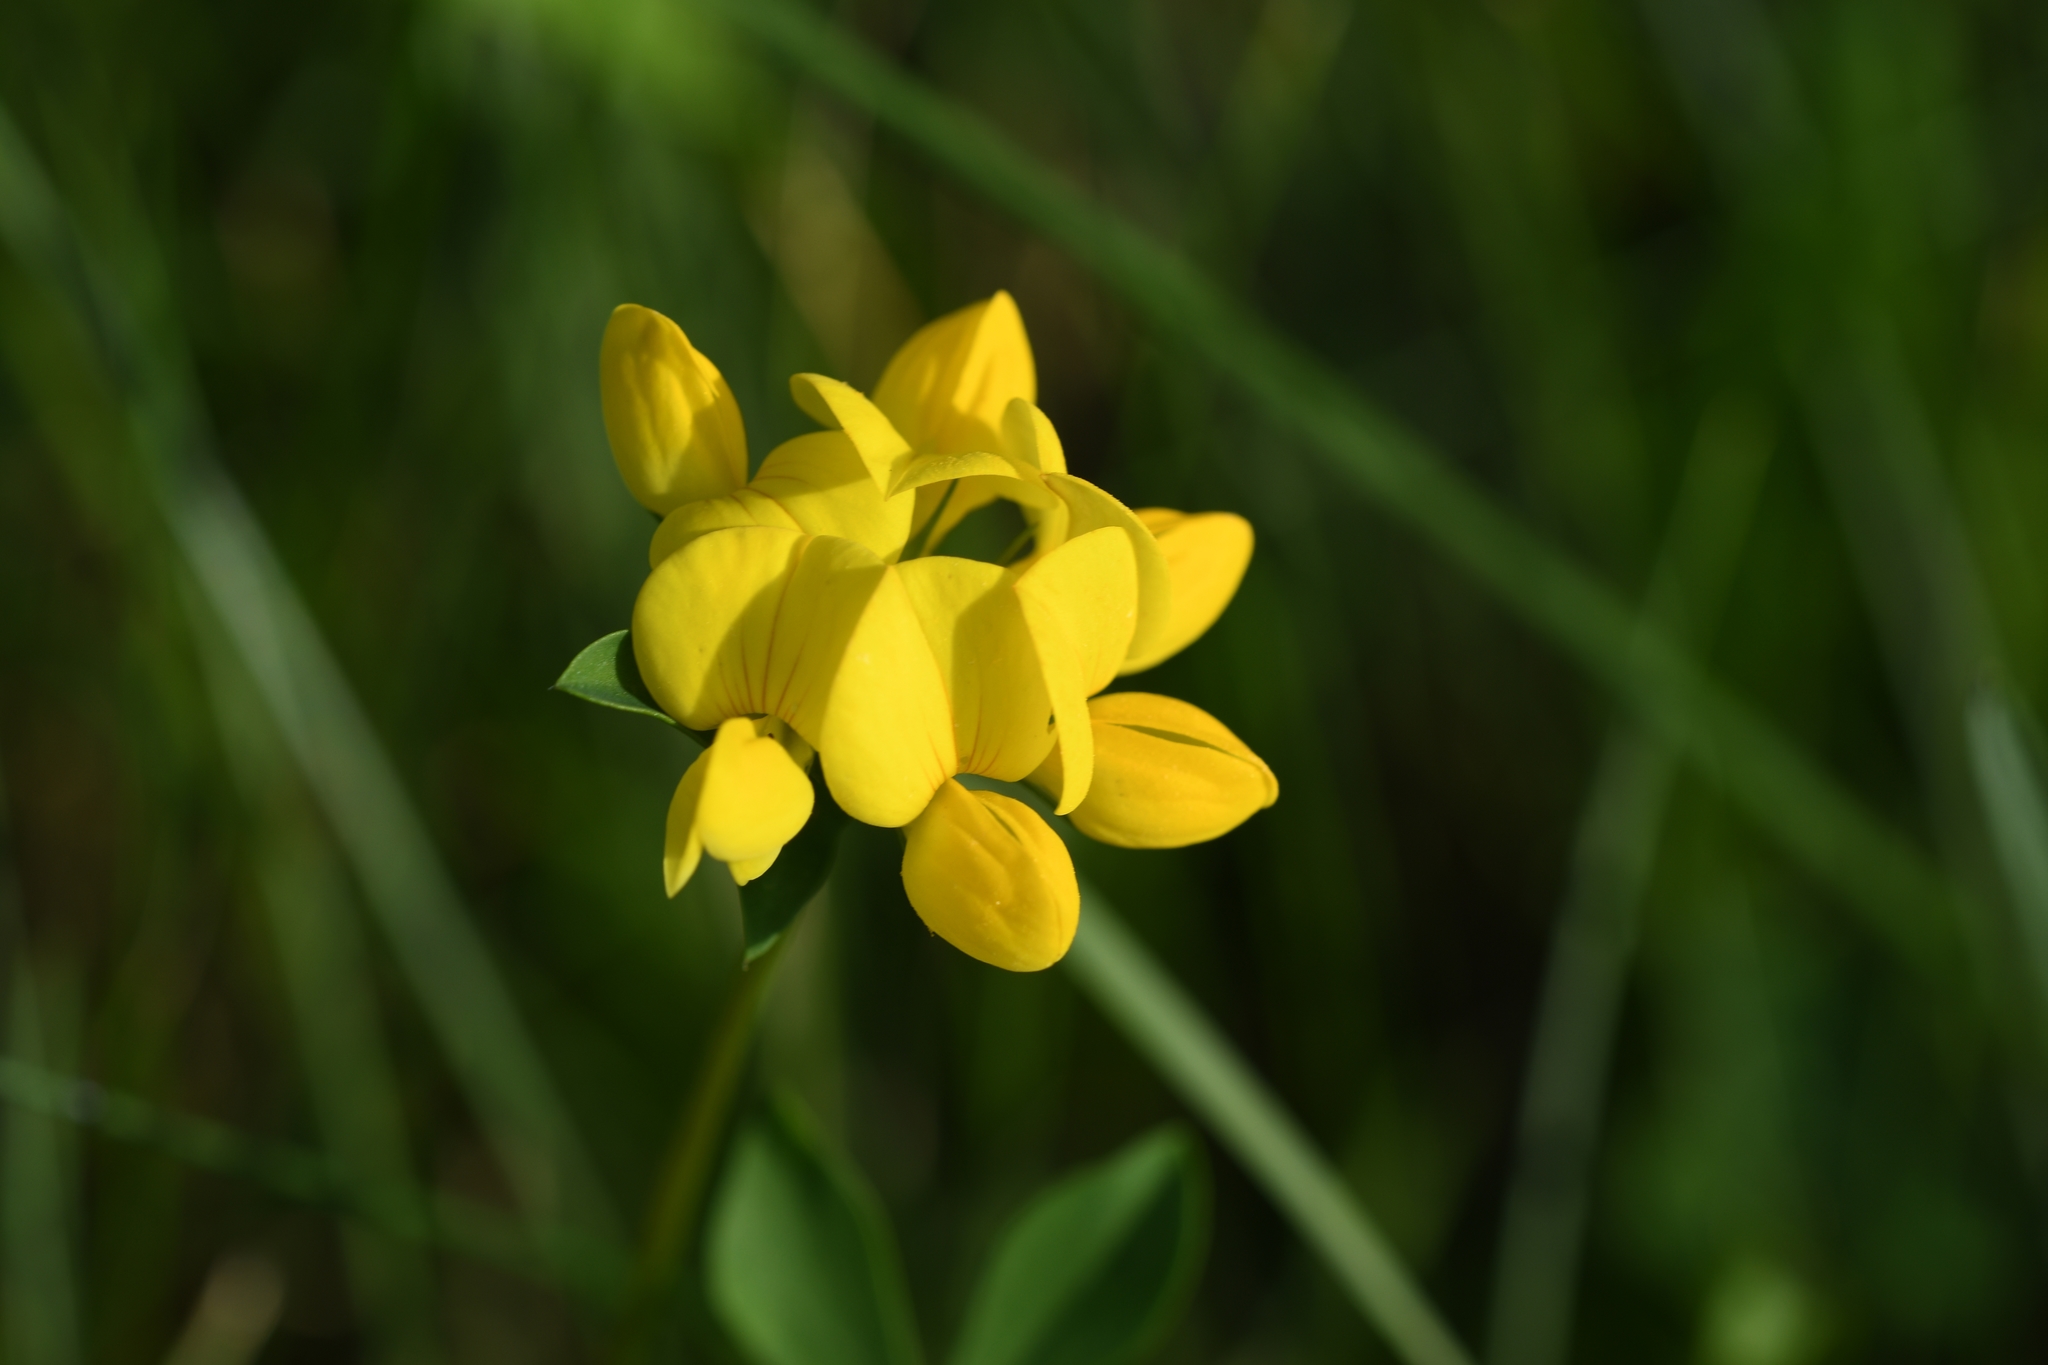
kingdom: Plantae
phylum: Tracheophyta
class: Magnoliopsida
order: Fabales
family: Fabaceae
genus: Lotus
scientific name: Lotus corniculatus
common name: Common bird's-foot-trefoil
